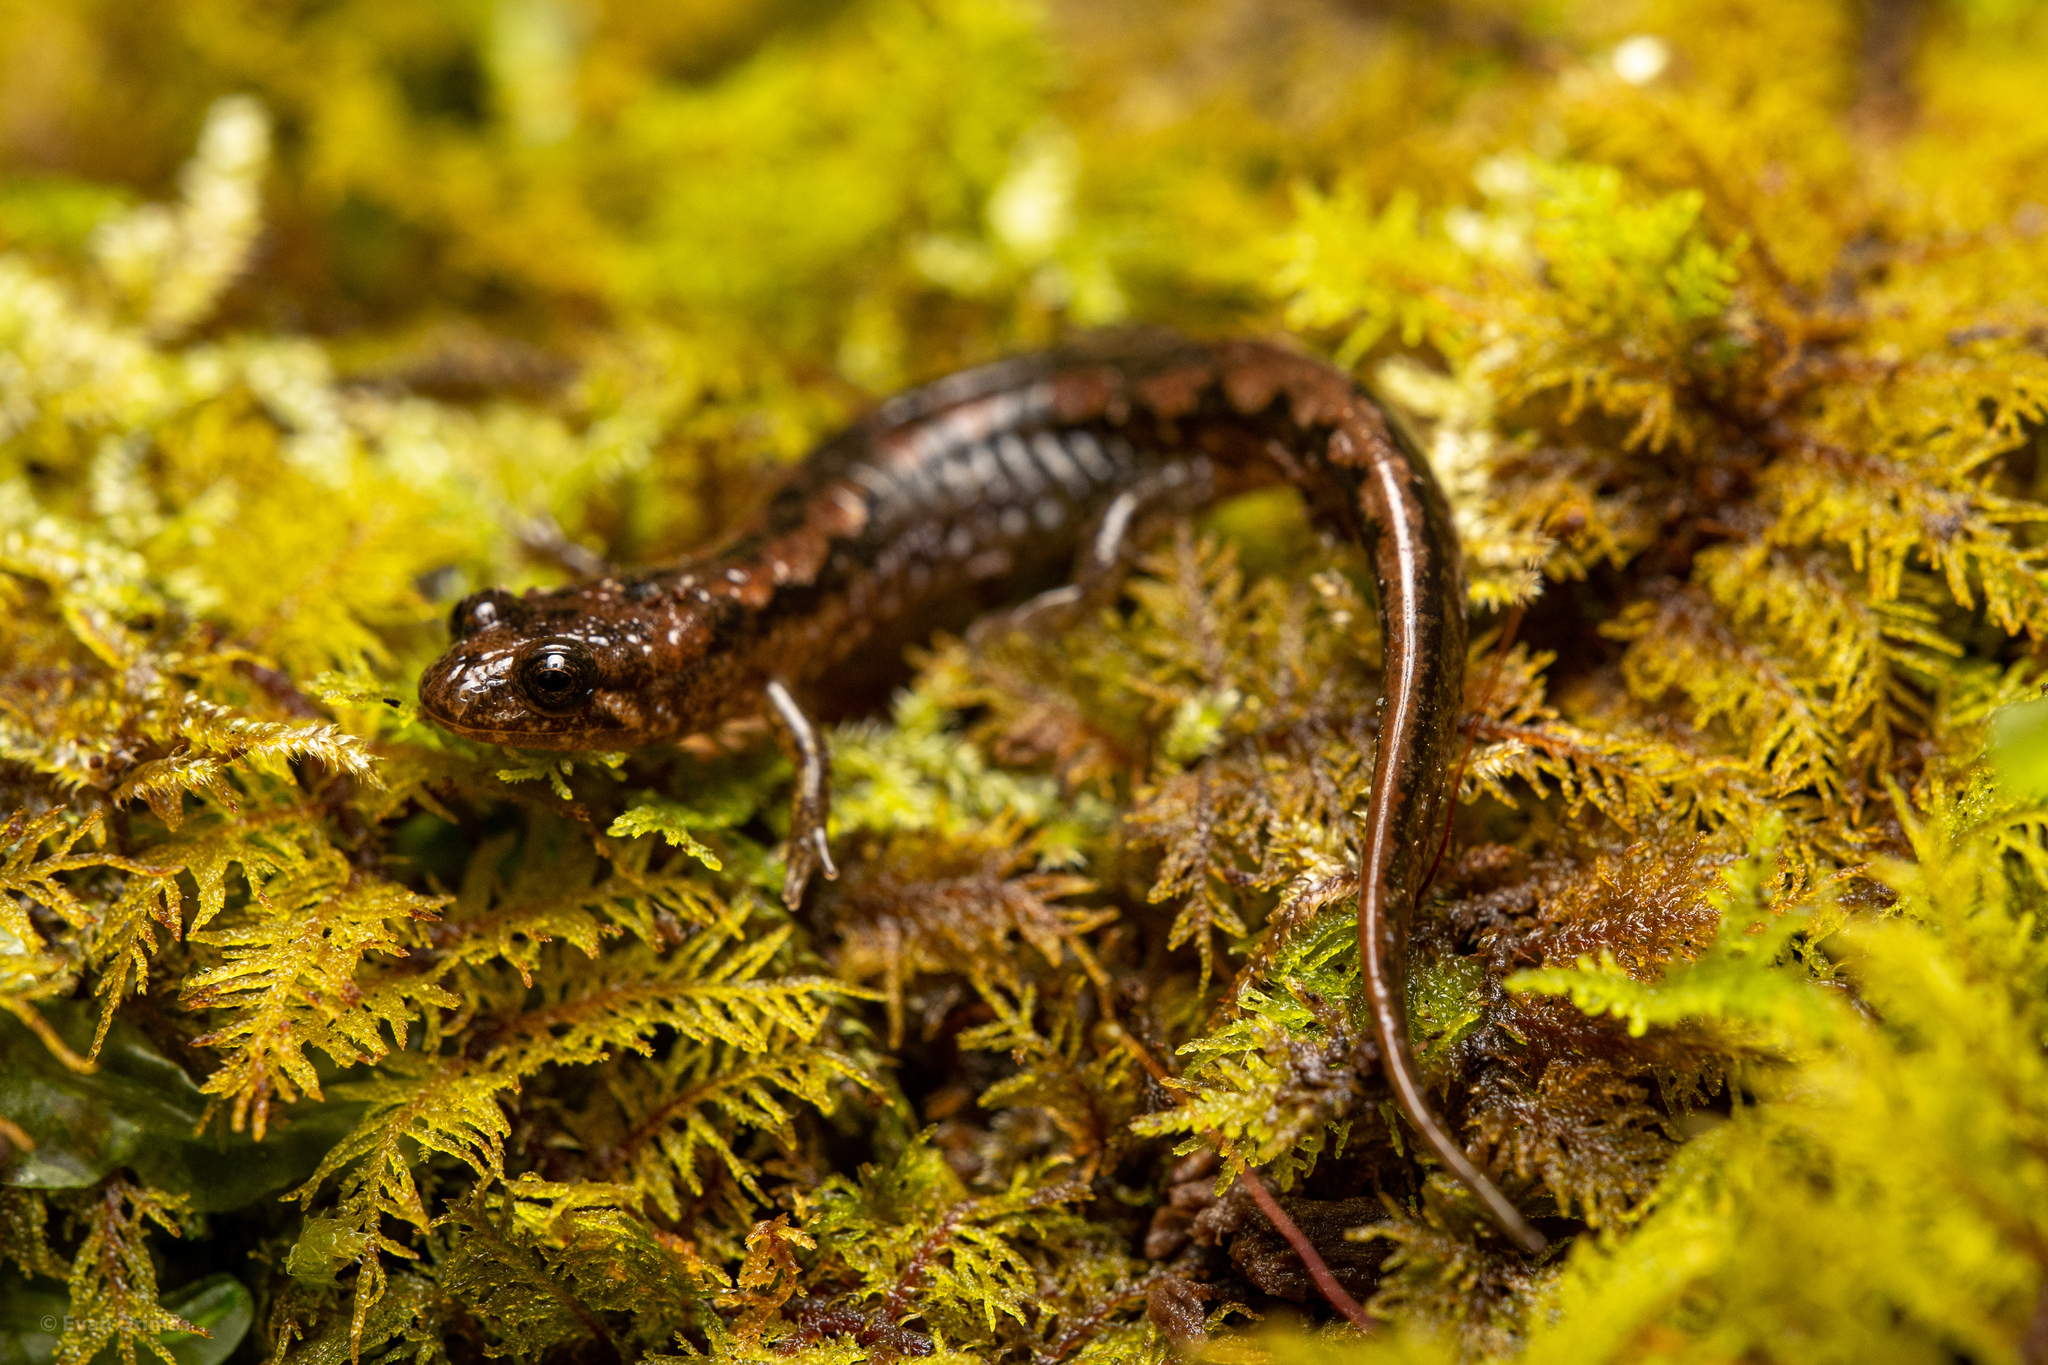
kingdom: Animalia
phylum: Chordata
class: Amphibia
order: Caudata
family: Plethodontidae
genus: Desmognathus
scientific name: Desmognathus conanti
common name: Spotted dusky salamander
